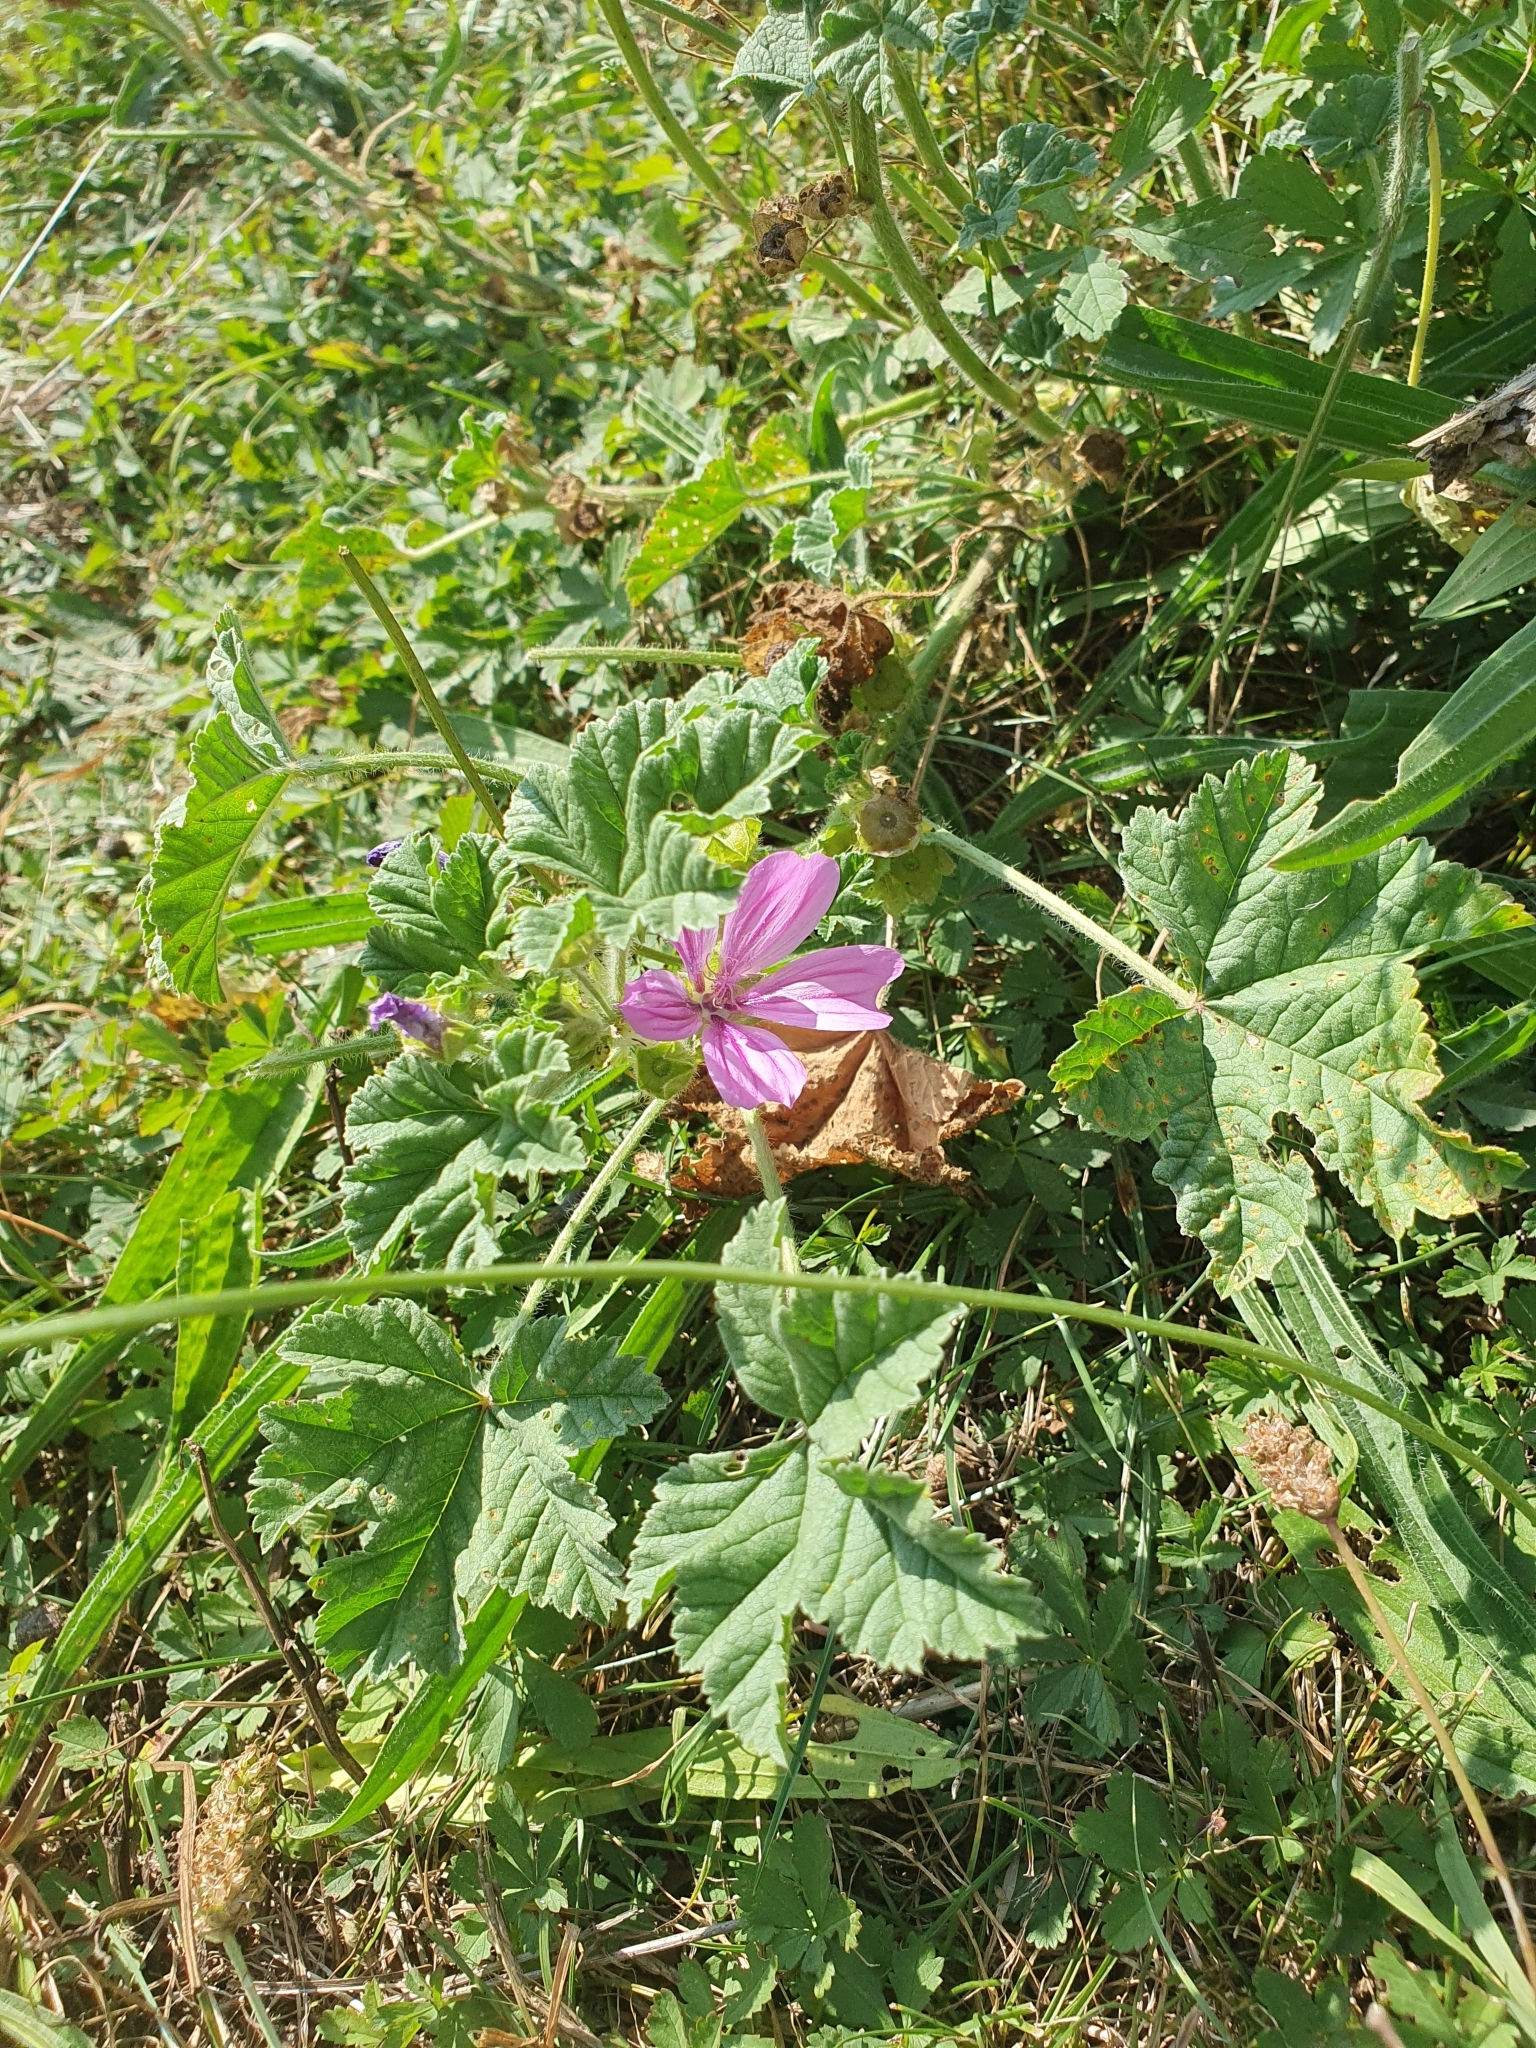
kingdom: Plantae
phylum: Tracheophyta
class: Magnoliopsida
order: Malvales
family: Malvaceae
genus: Malva
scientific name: Malva sylvestris
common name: Common mallow
